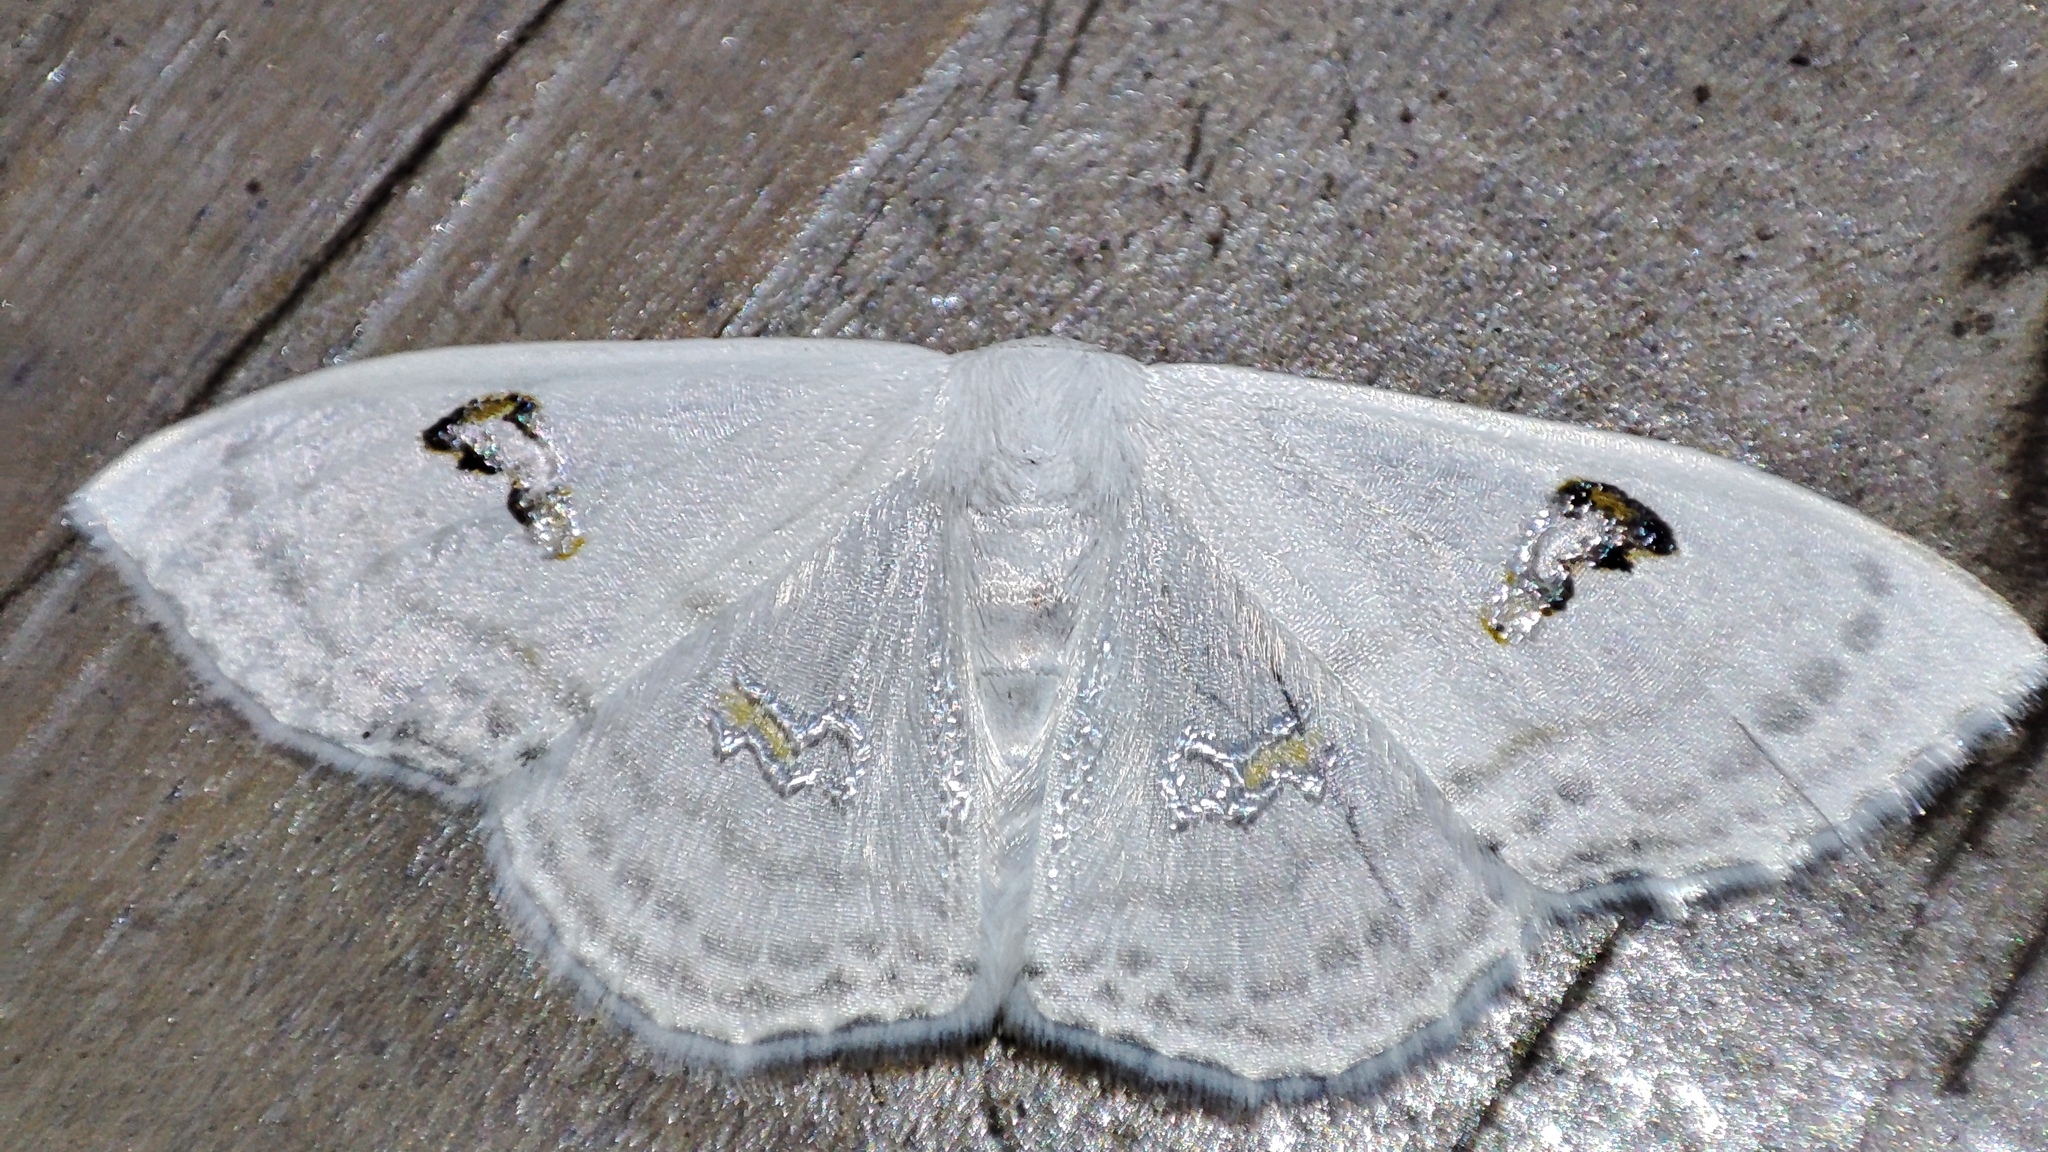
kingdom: Animalia
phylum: Arthropoda
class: Insecta
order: Lepidoptera
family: Geometridae
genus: Problepsis
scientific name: Problepsis aegretta
